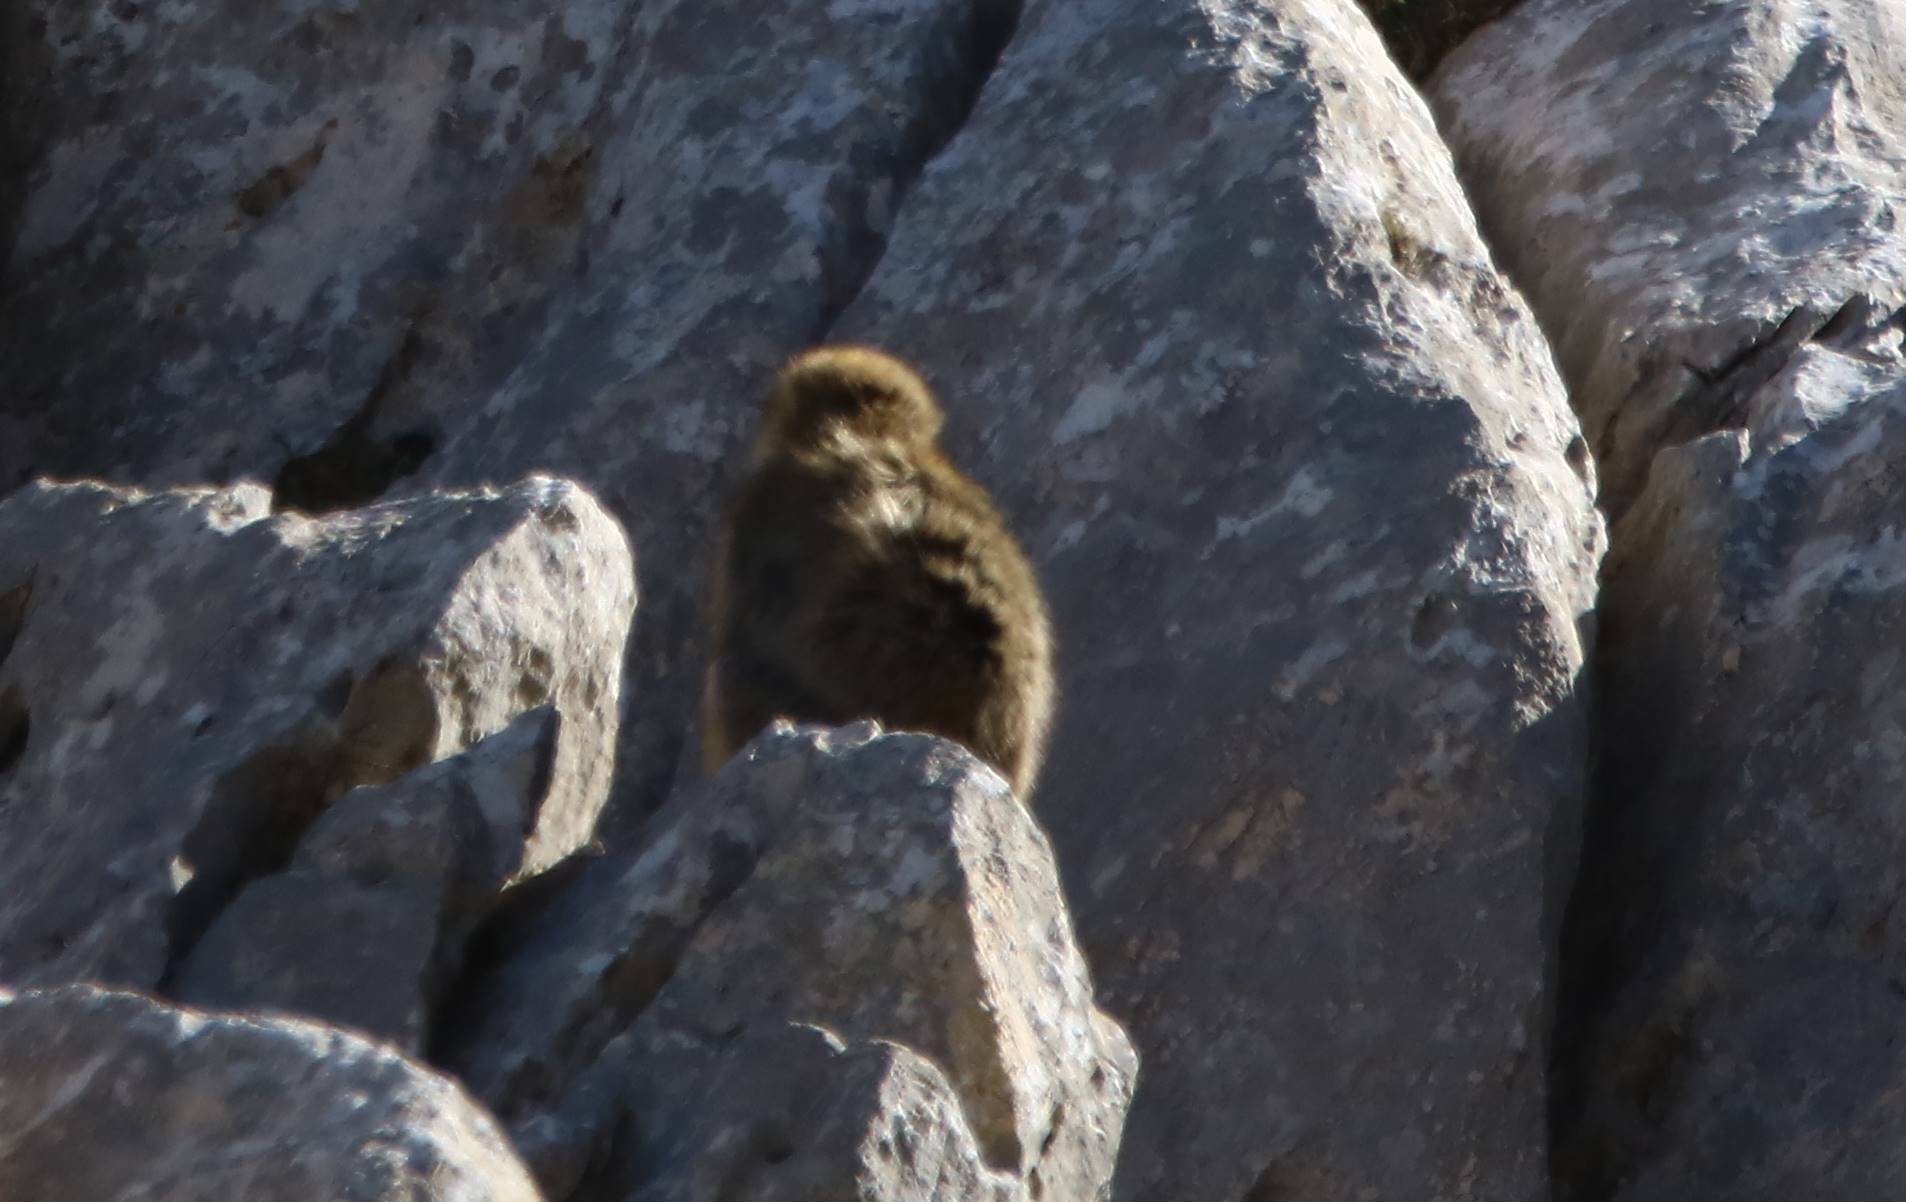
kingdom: Animalia
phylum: Chordata
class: Mammalia
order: Primates
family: Cercopithecidae
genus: Macaca
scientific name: Macaca sylvanus
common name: Barbary macaque
